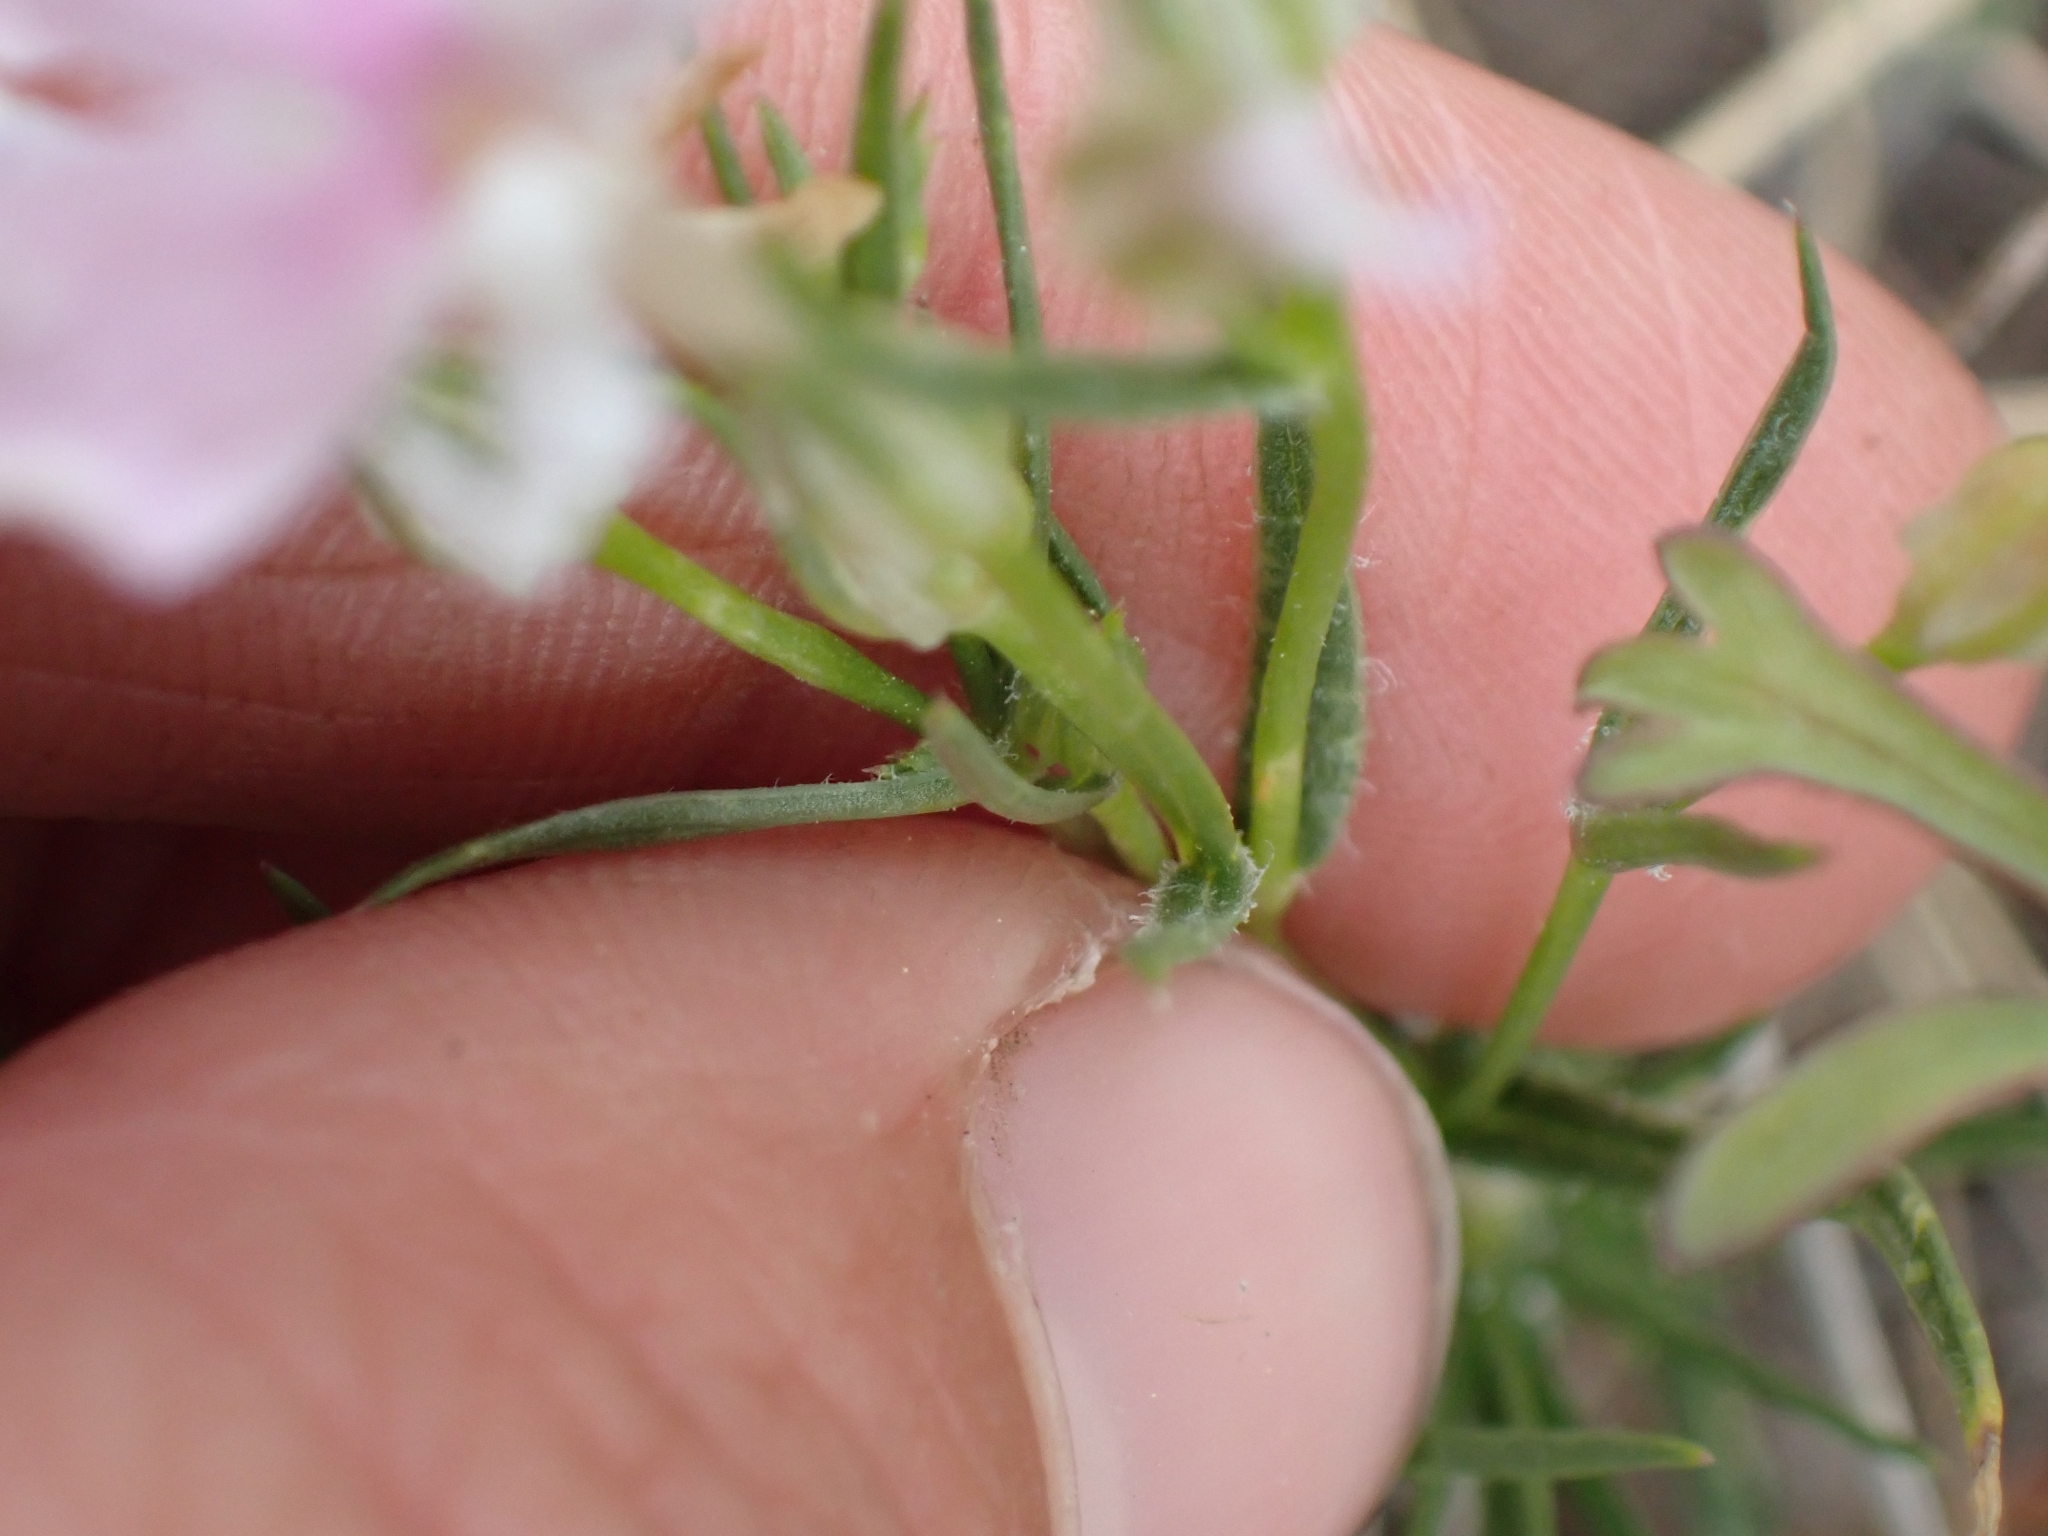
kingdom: Plantae
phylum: Tracheophyta
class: Magnoliopsida
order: Ericales
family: Polemoniaceae
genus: Phlox
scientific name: Phlox longifolia
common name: Longleaf phlox
